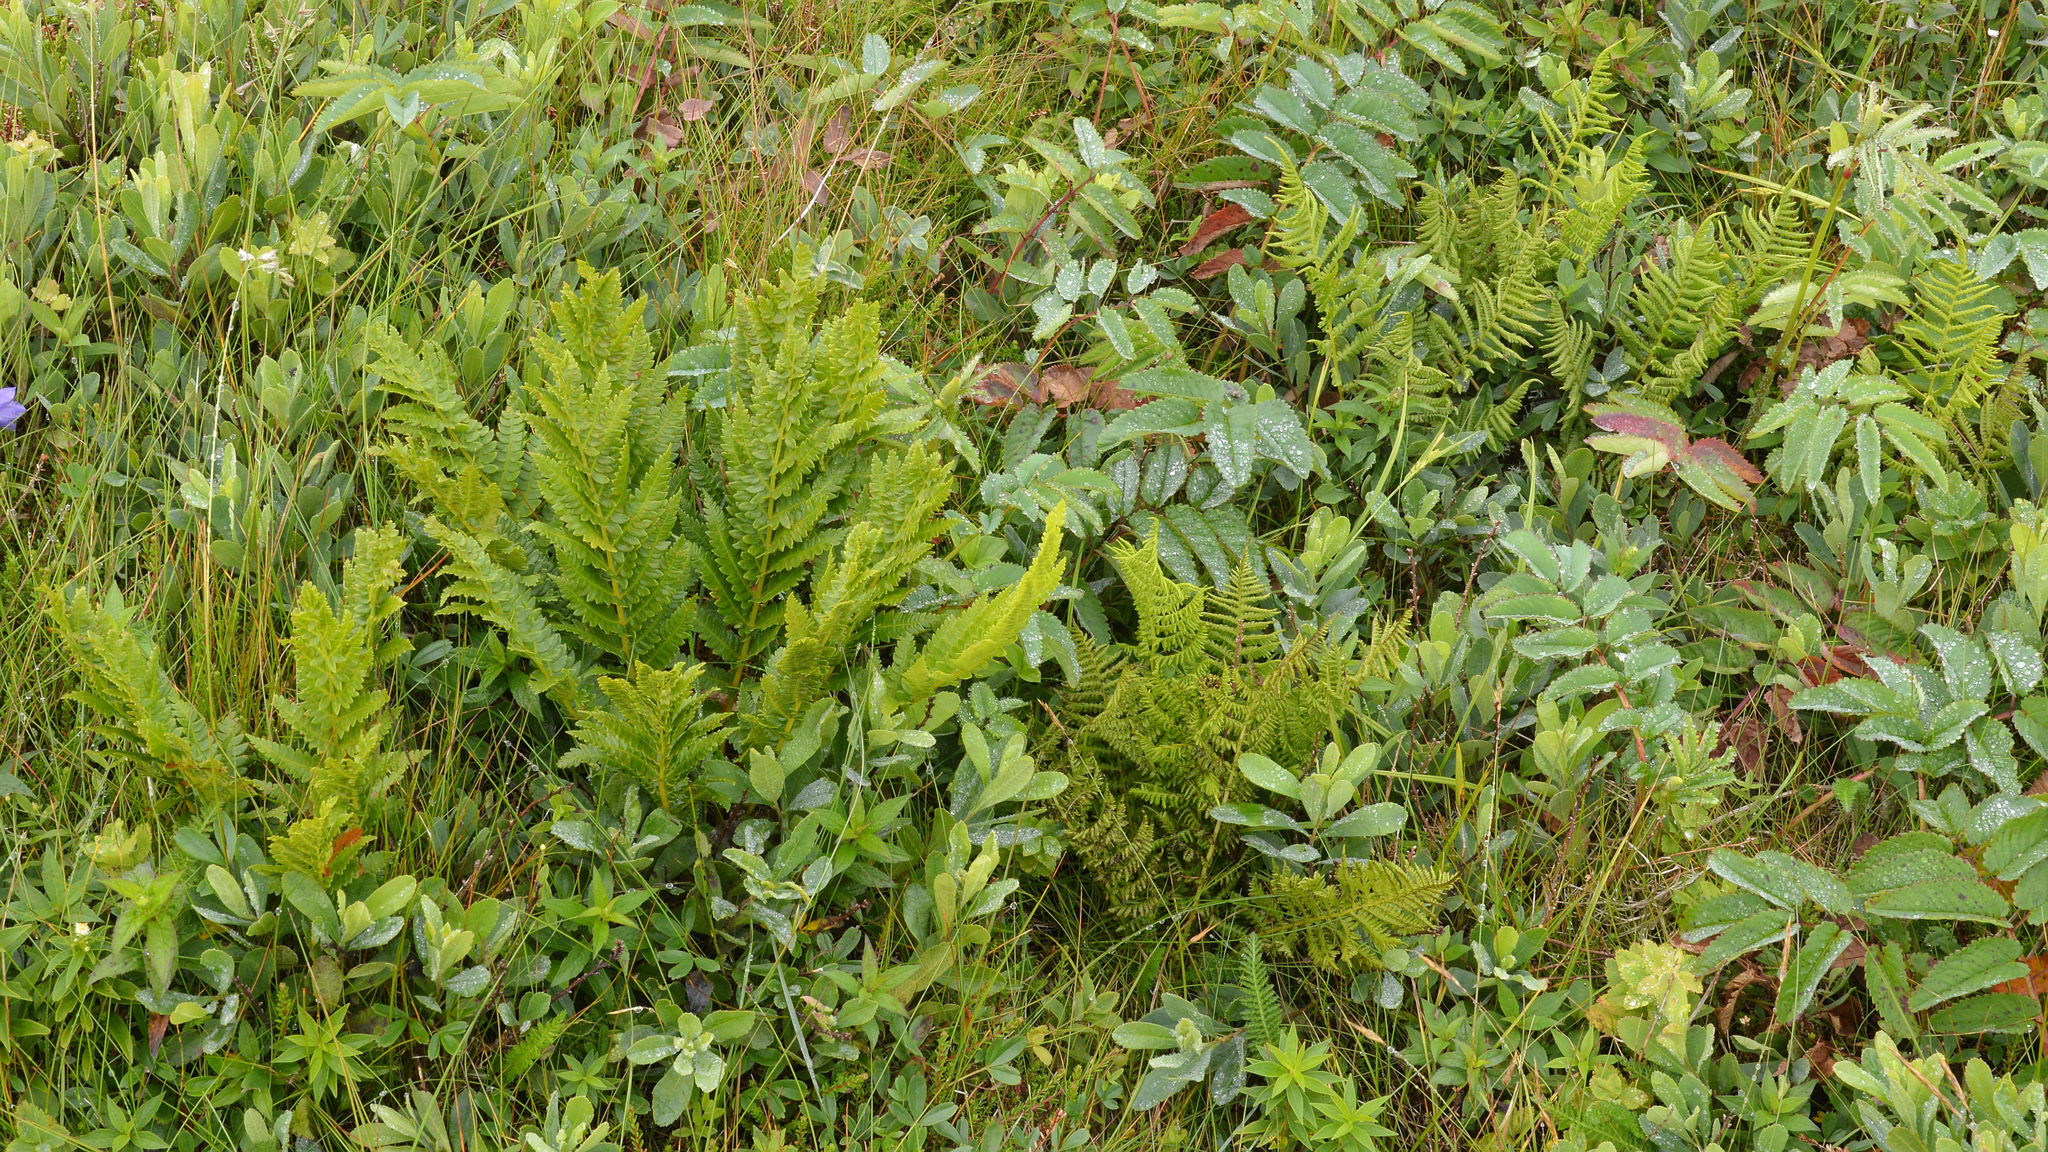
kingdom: Plantae
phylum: Tracheophyta
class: Polypodiopsida
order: Osmundales
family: Osmundaceae
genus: Osmundastrum
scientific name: Osmundastrum cinnamomeum
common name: Cinnamon fern
